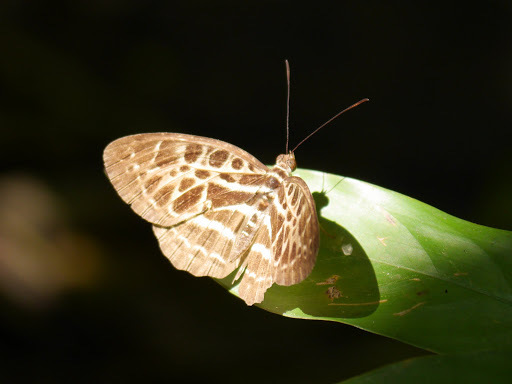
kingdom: Animalia
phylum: Arthropoda
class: Insecta
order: Lepidoptera
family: Nymphalidae
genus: Catuna
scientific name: Catuna
